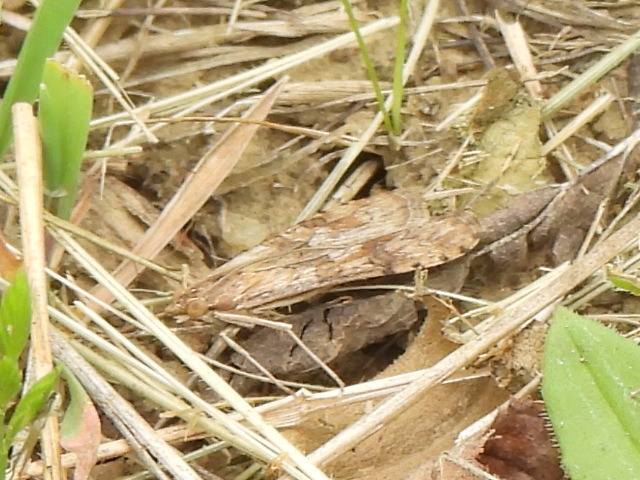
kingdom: Animalia
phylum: Arthropoda
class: Insecta
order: Lepidoptera
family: Crambidae
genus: Nomophila
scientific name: Nomophila nearctica
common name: American rush veneer
